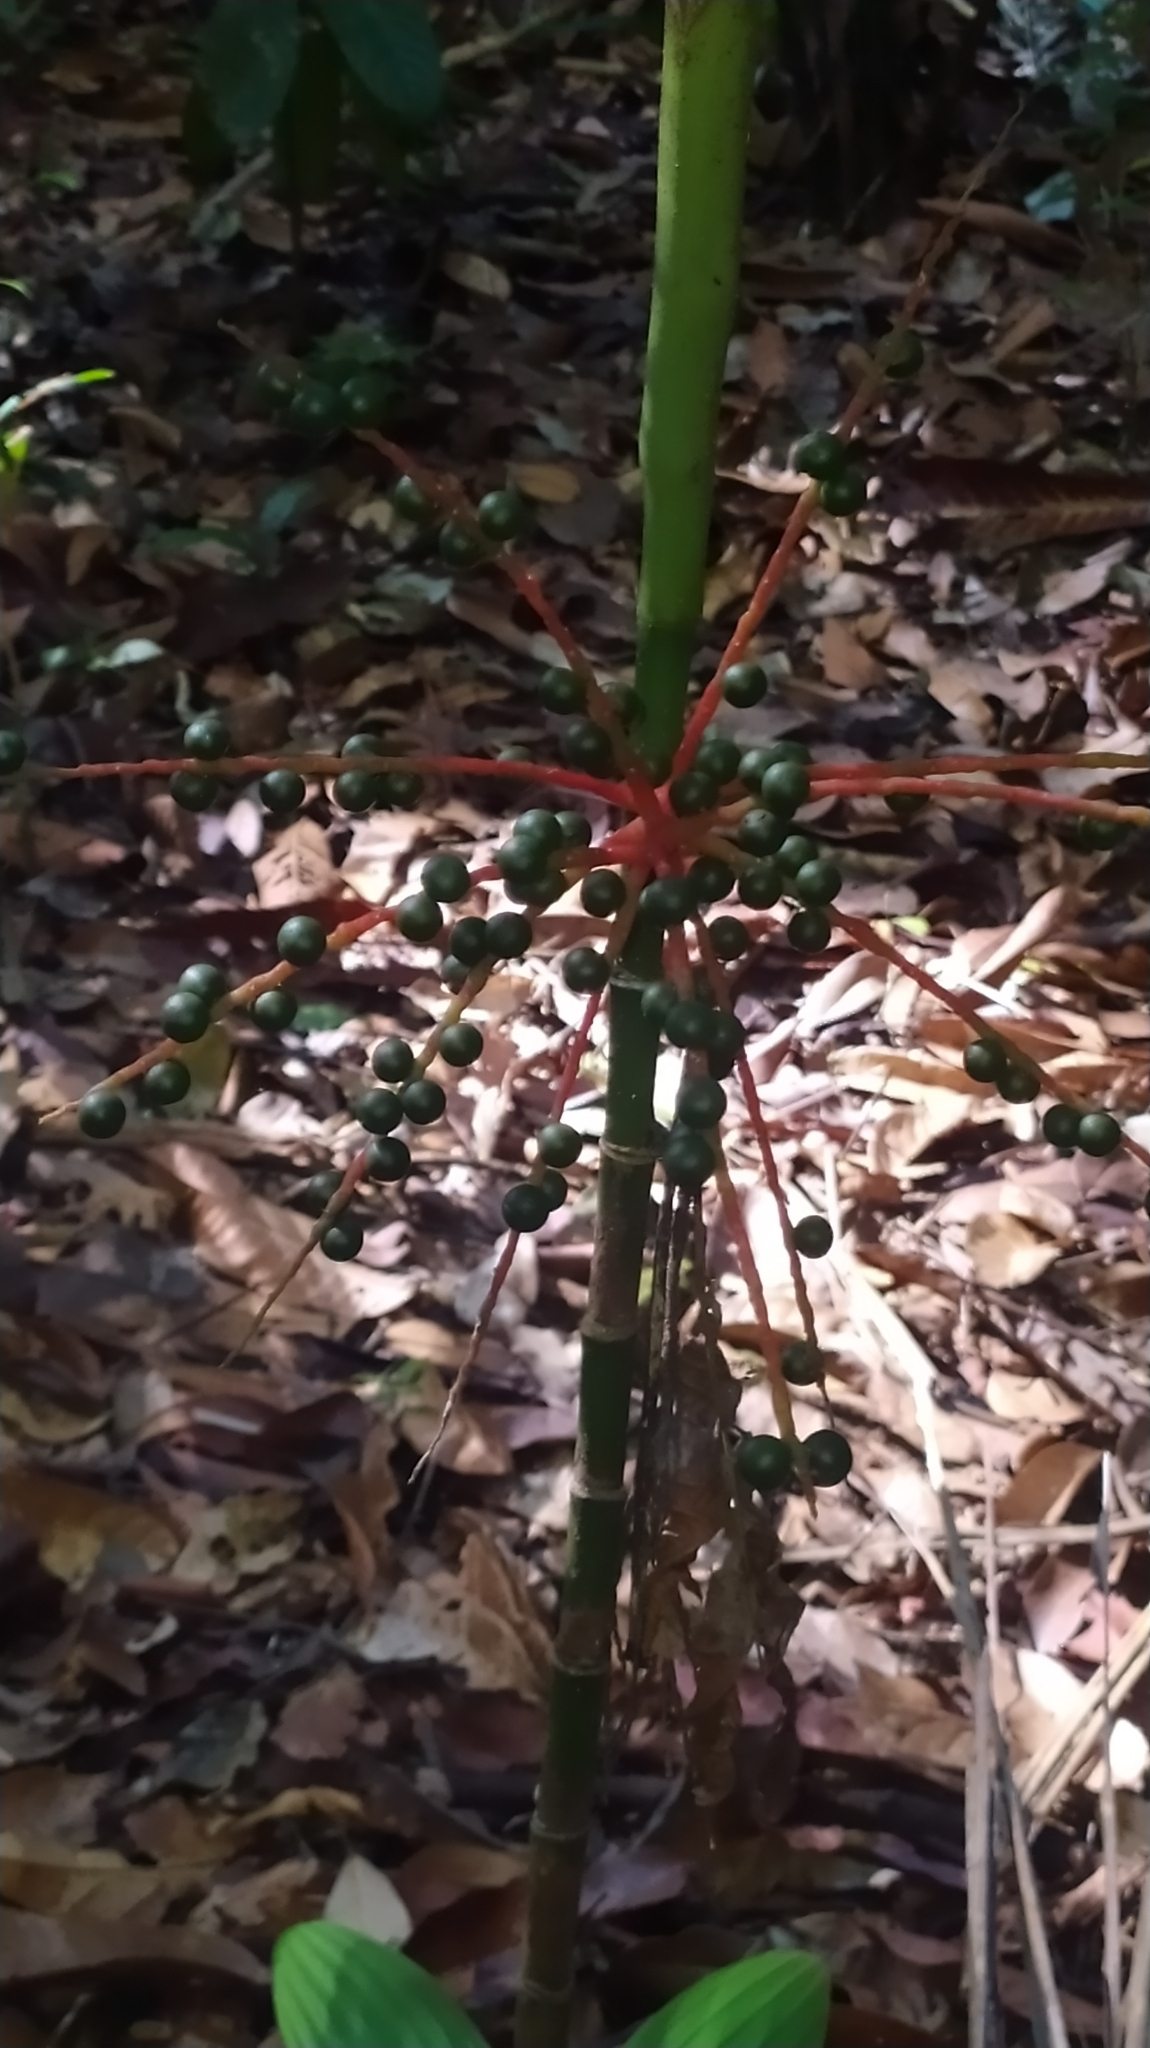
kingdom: Plantae
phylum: Tracheophyta
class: Liliopsida
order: Arecales
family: Arecaceae
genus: Hyospathe
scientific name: Hyospathe elegans
